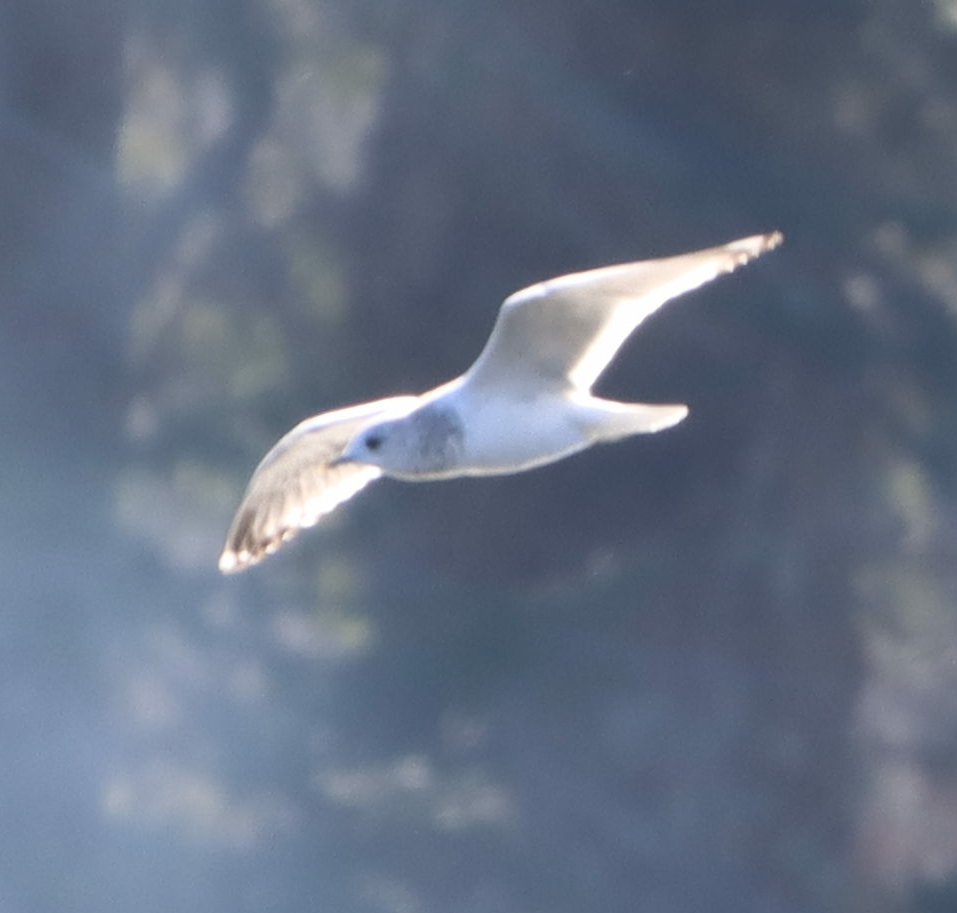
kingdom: Animalia
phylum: Chordata
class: Aves
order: Charadriiformes
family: Laridae
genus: Larus
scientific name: Larus brachyrhynchus
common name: Short-billed gull
